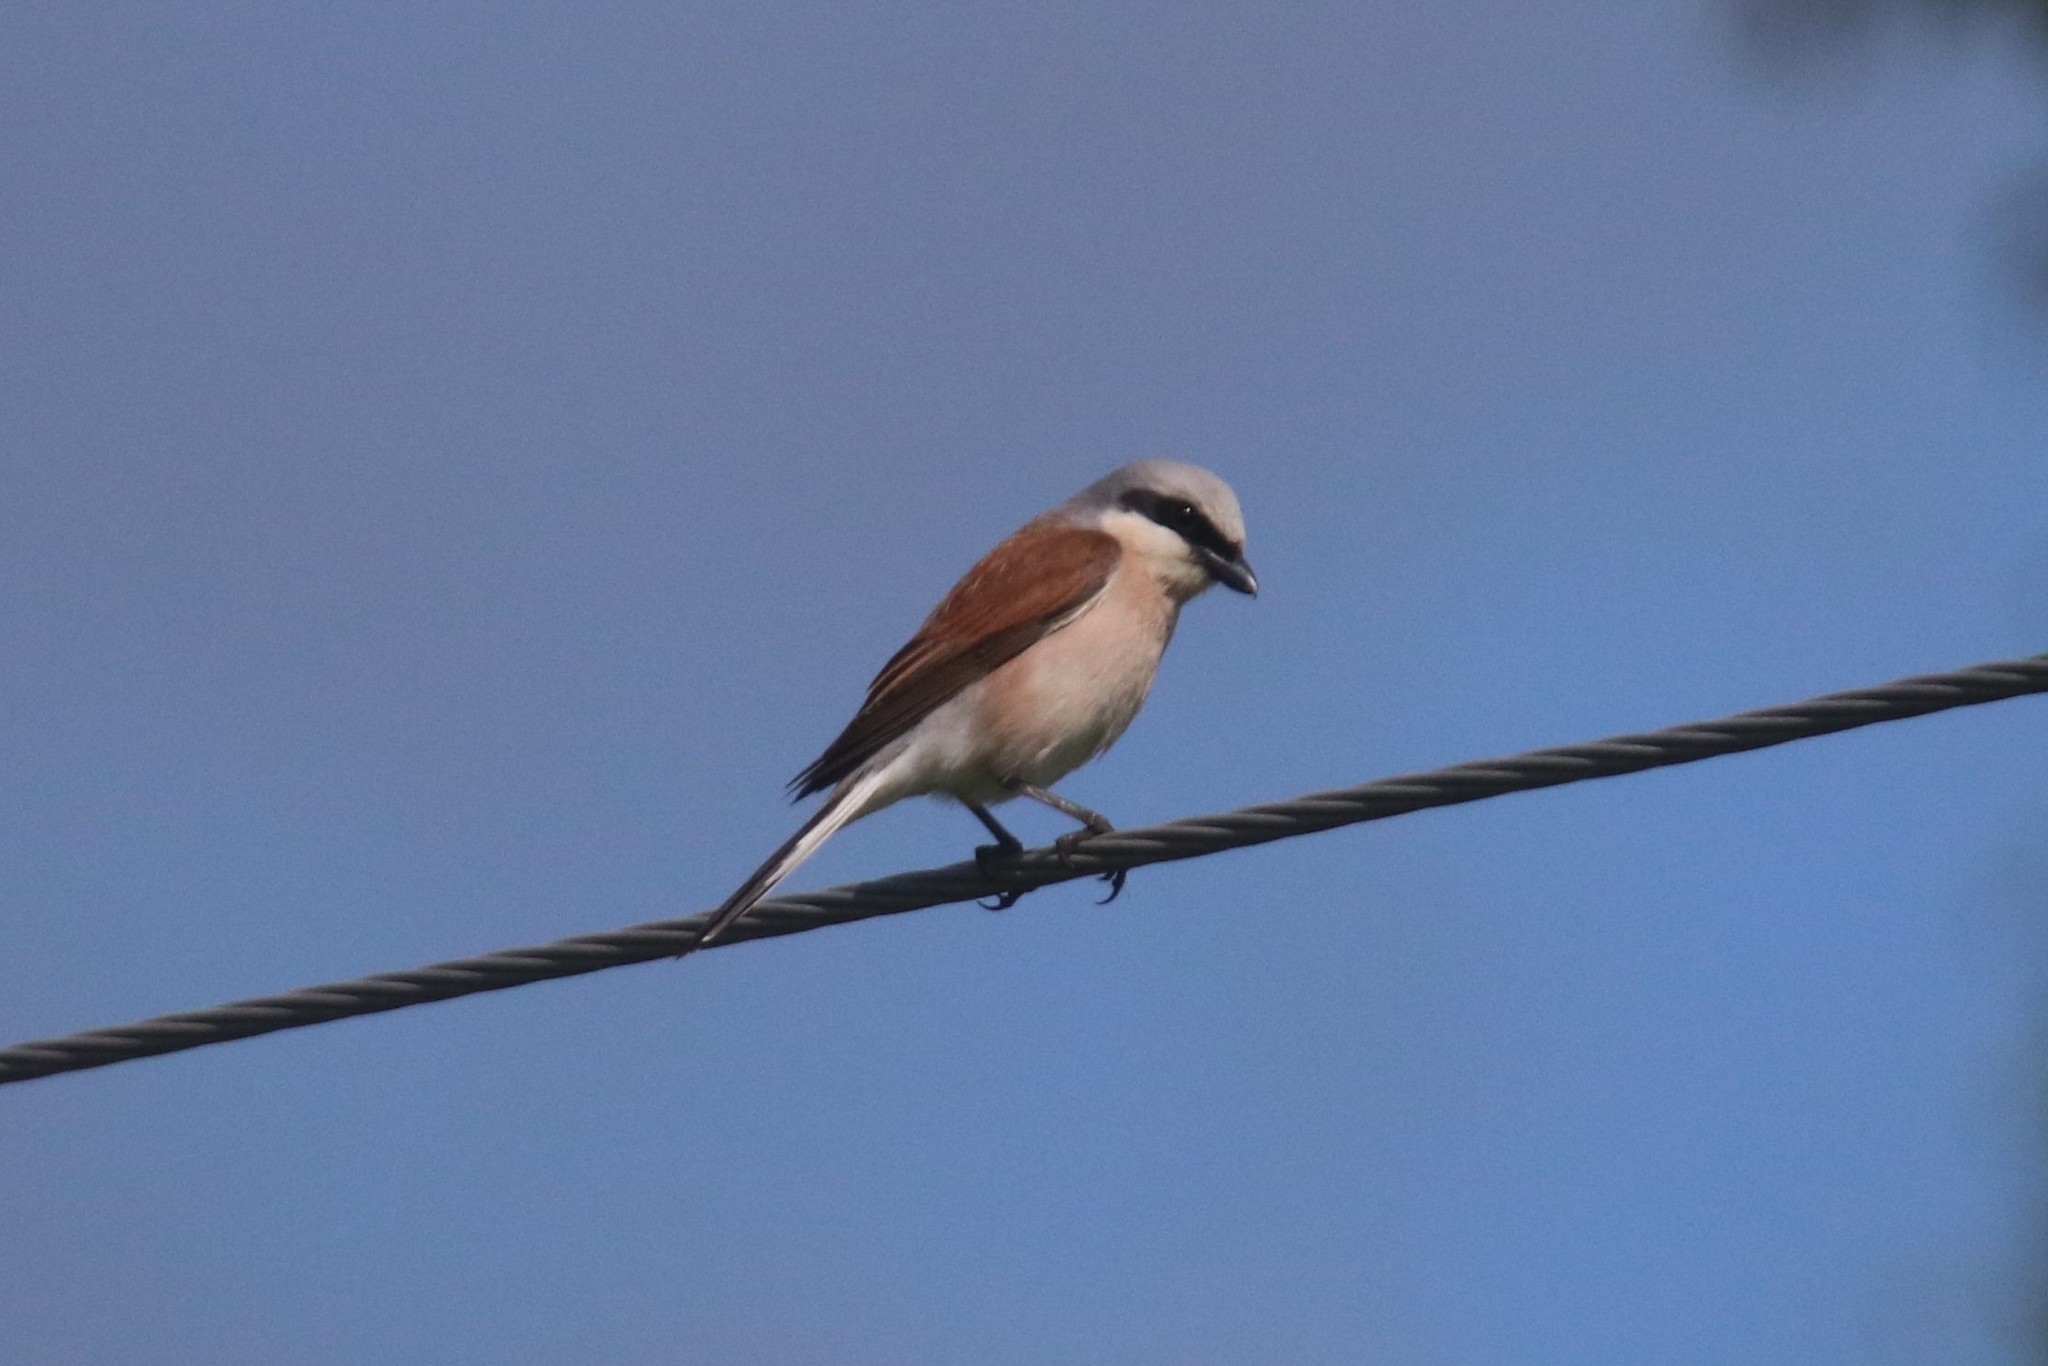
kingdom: Animalia
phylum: Chordata
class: Aves
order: Passeriformes
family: Laniidae
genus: Lanius
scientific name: Lanius collurio
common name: Red-backed shrike
